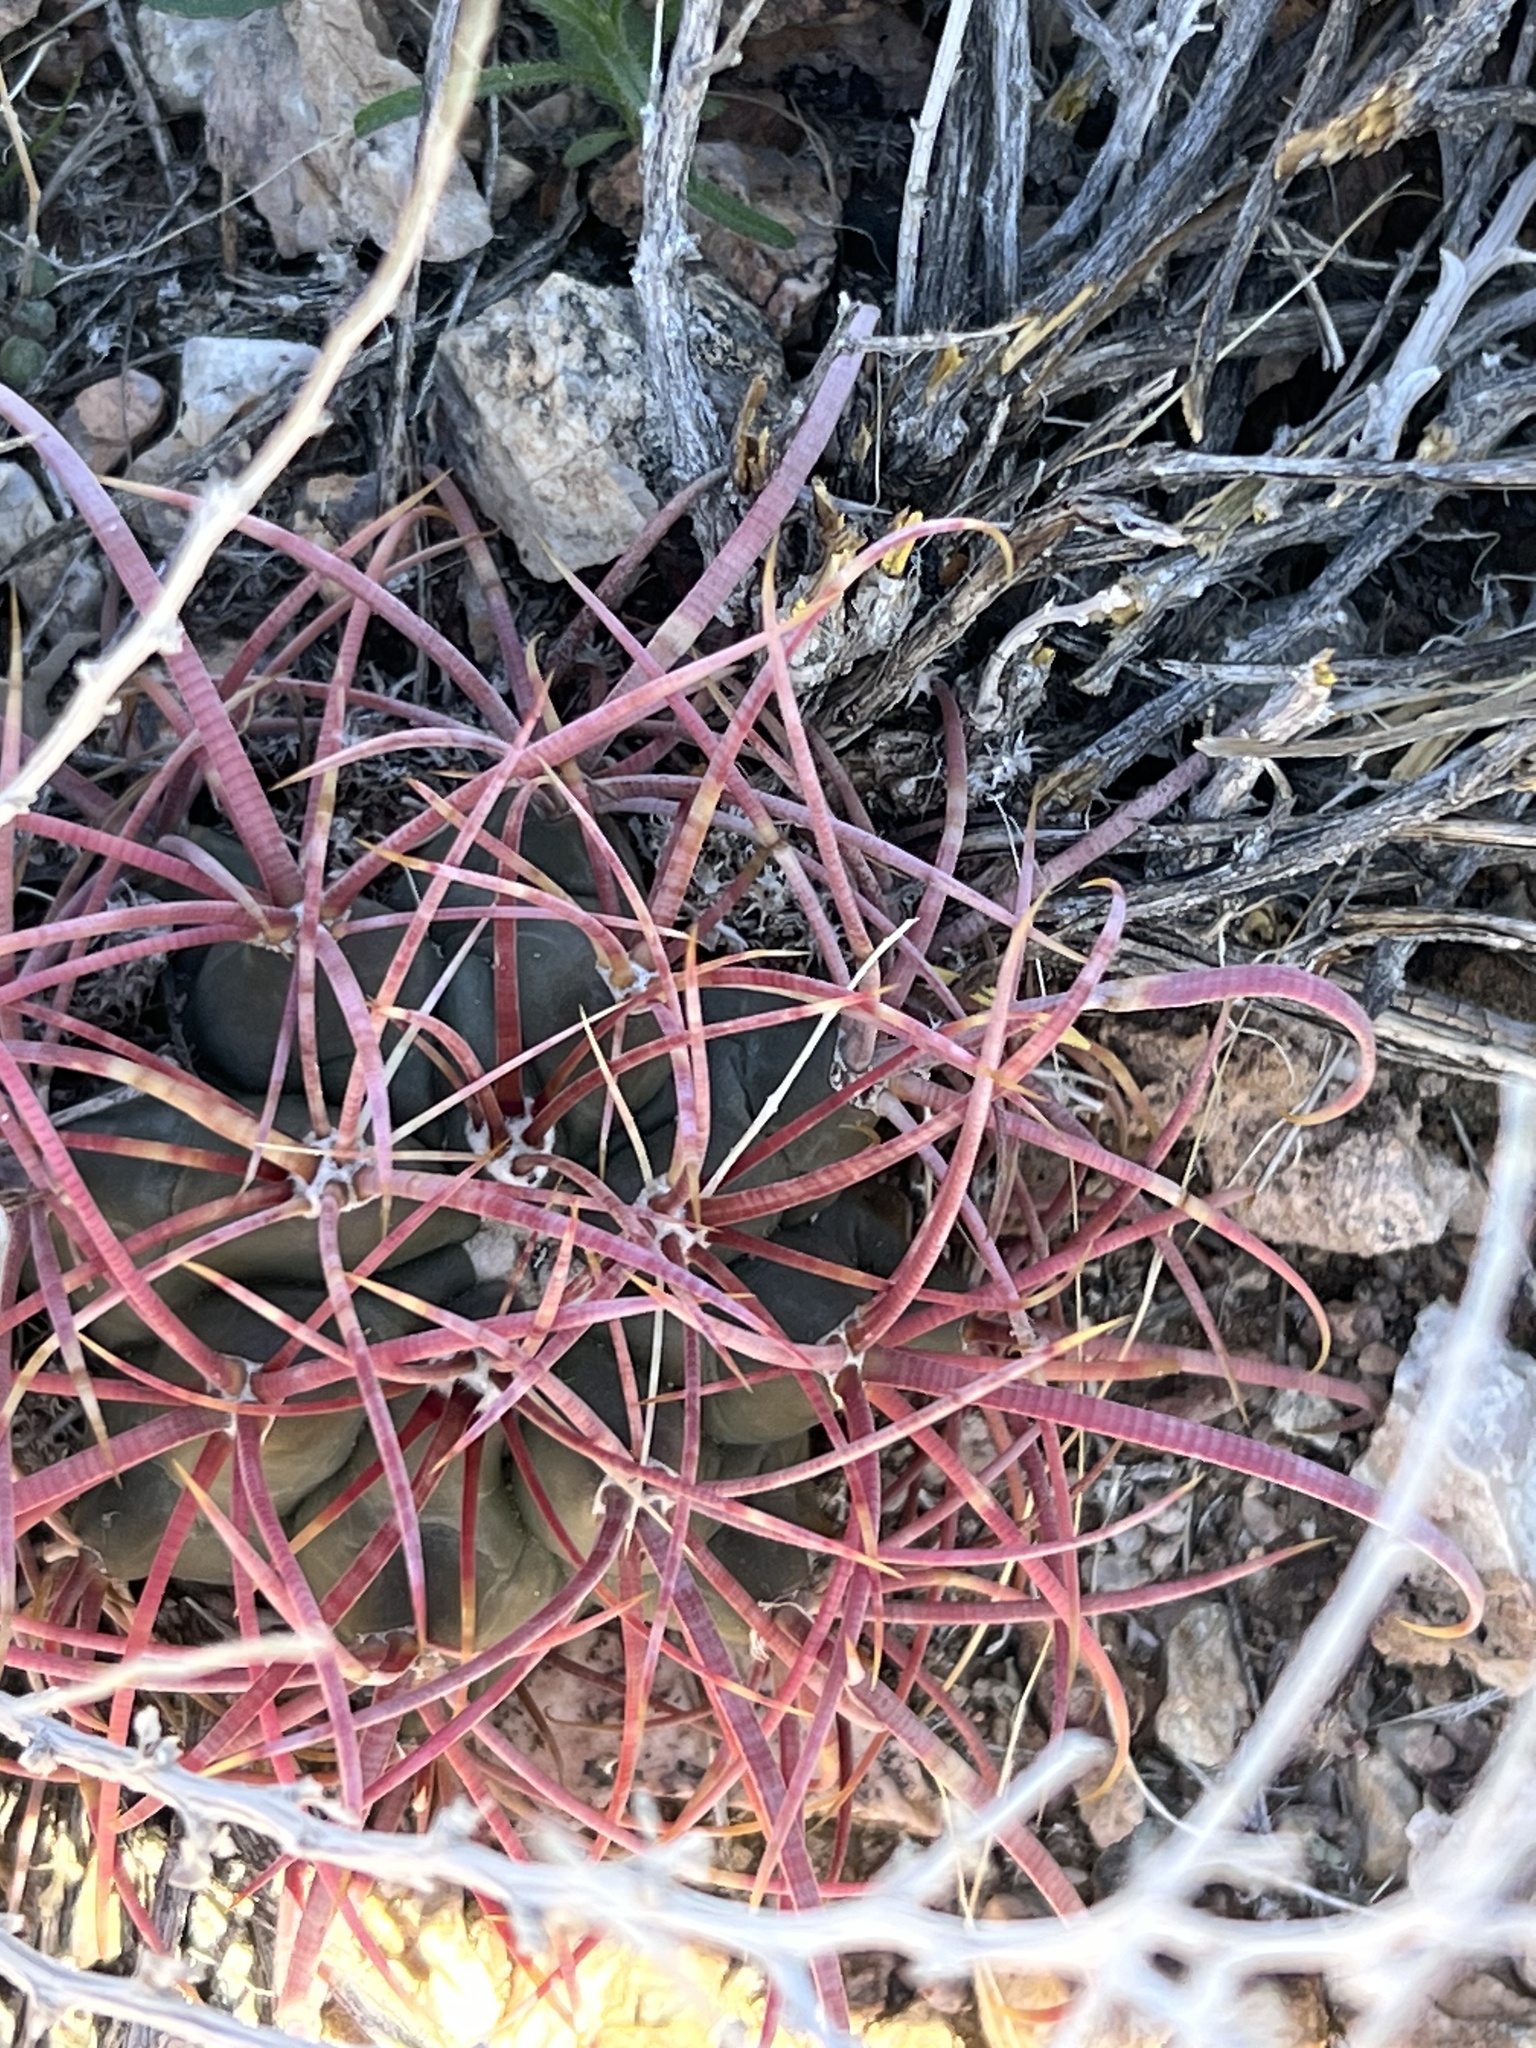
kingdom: Plantae
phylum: Tracheophyta
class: Magnoliopsida
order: Caryophyllales
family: Cactaceae
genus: Ferocactus
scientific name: Ferocactus cylindraceus
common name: California barrel cactus
